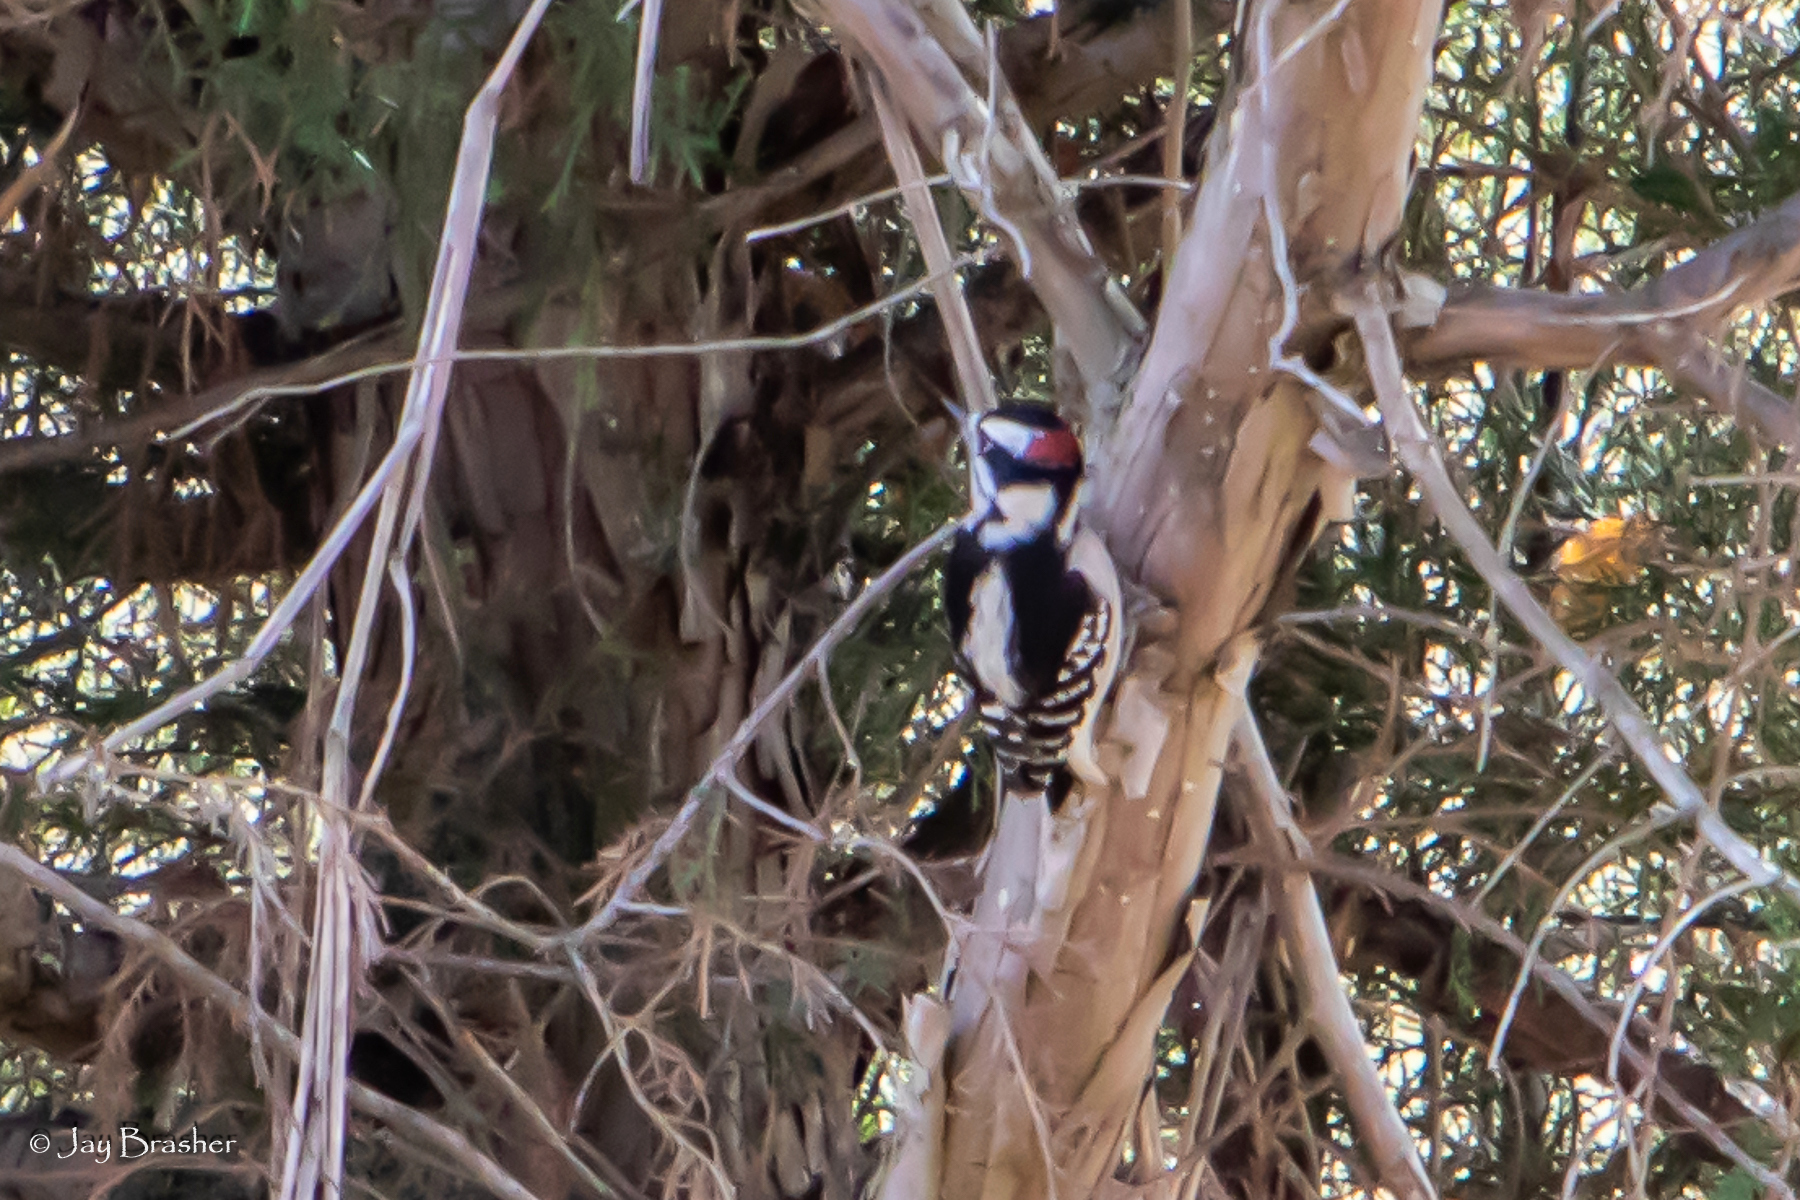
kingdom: Animalia
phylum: Chordata
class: Aves
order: Piciformes
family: Picidae
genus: Dryobates
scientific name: Dryobates pubescens
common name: Downy woodpecker
